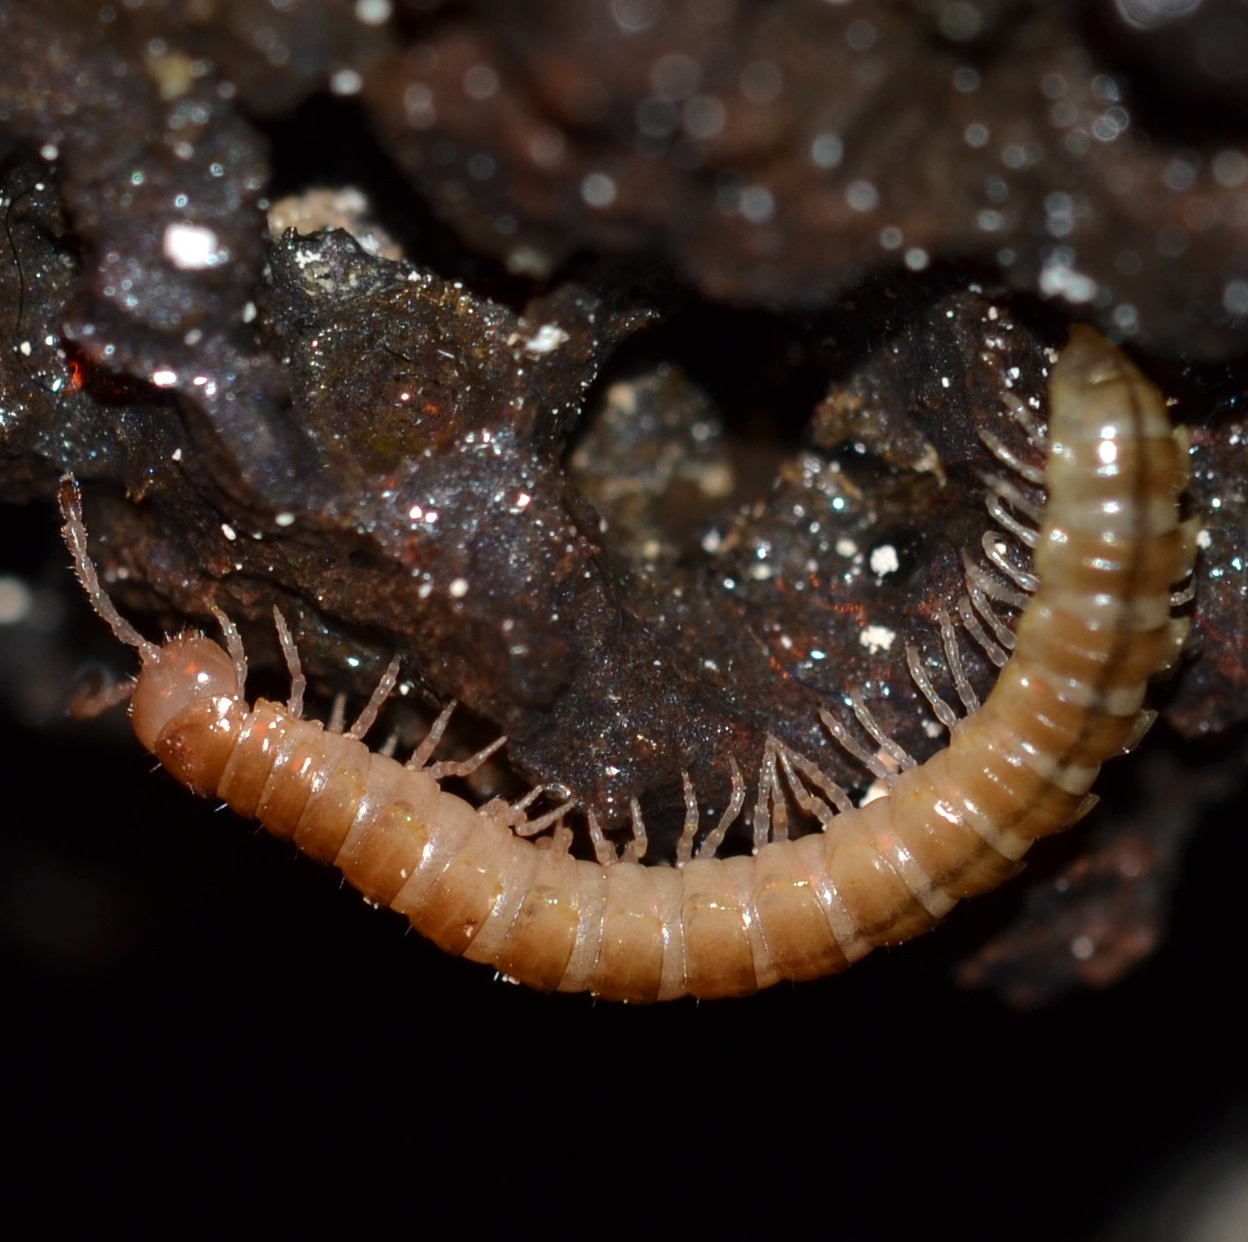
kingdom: Animalia
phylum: Arthropoda
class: Diplopoda
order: Polydesmida
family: Paradoxosomatidae
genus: Oxidus
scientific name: Oxidus gracilis
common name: Greenhouse millipede
